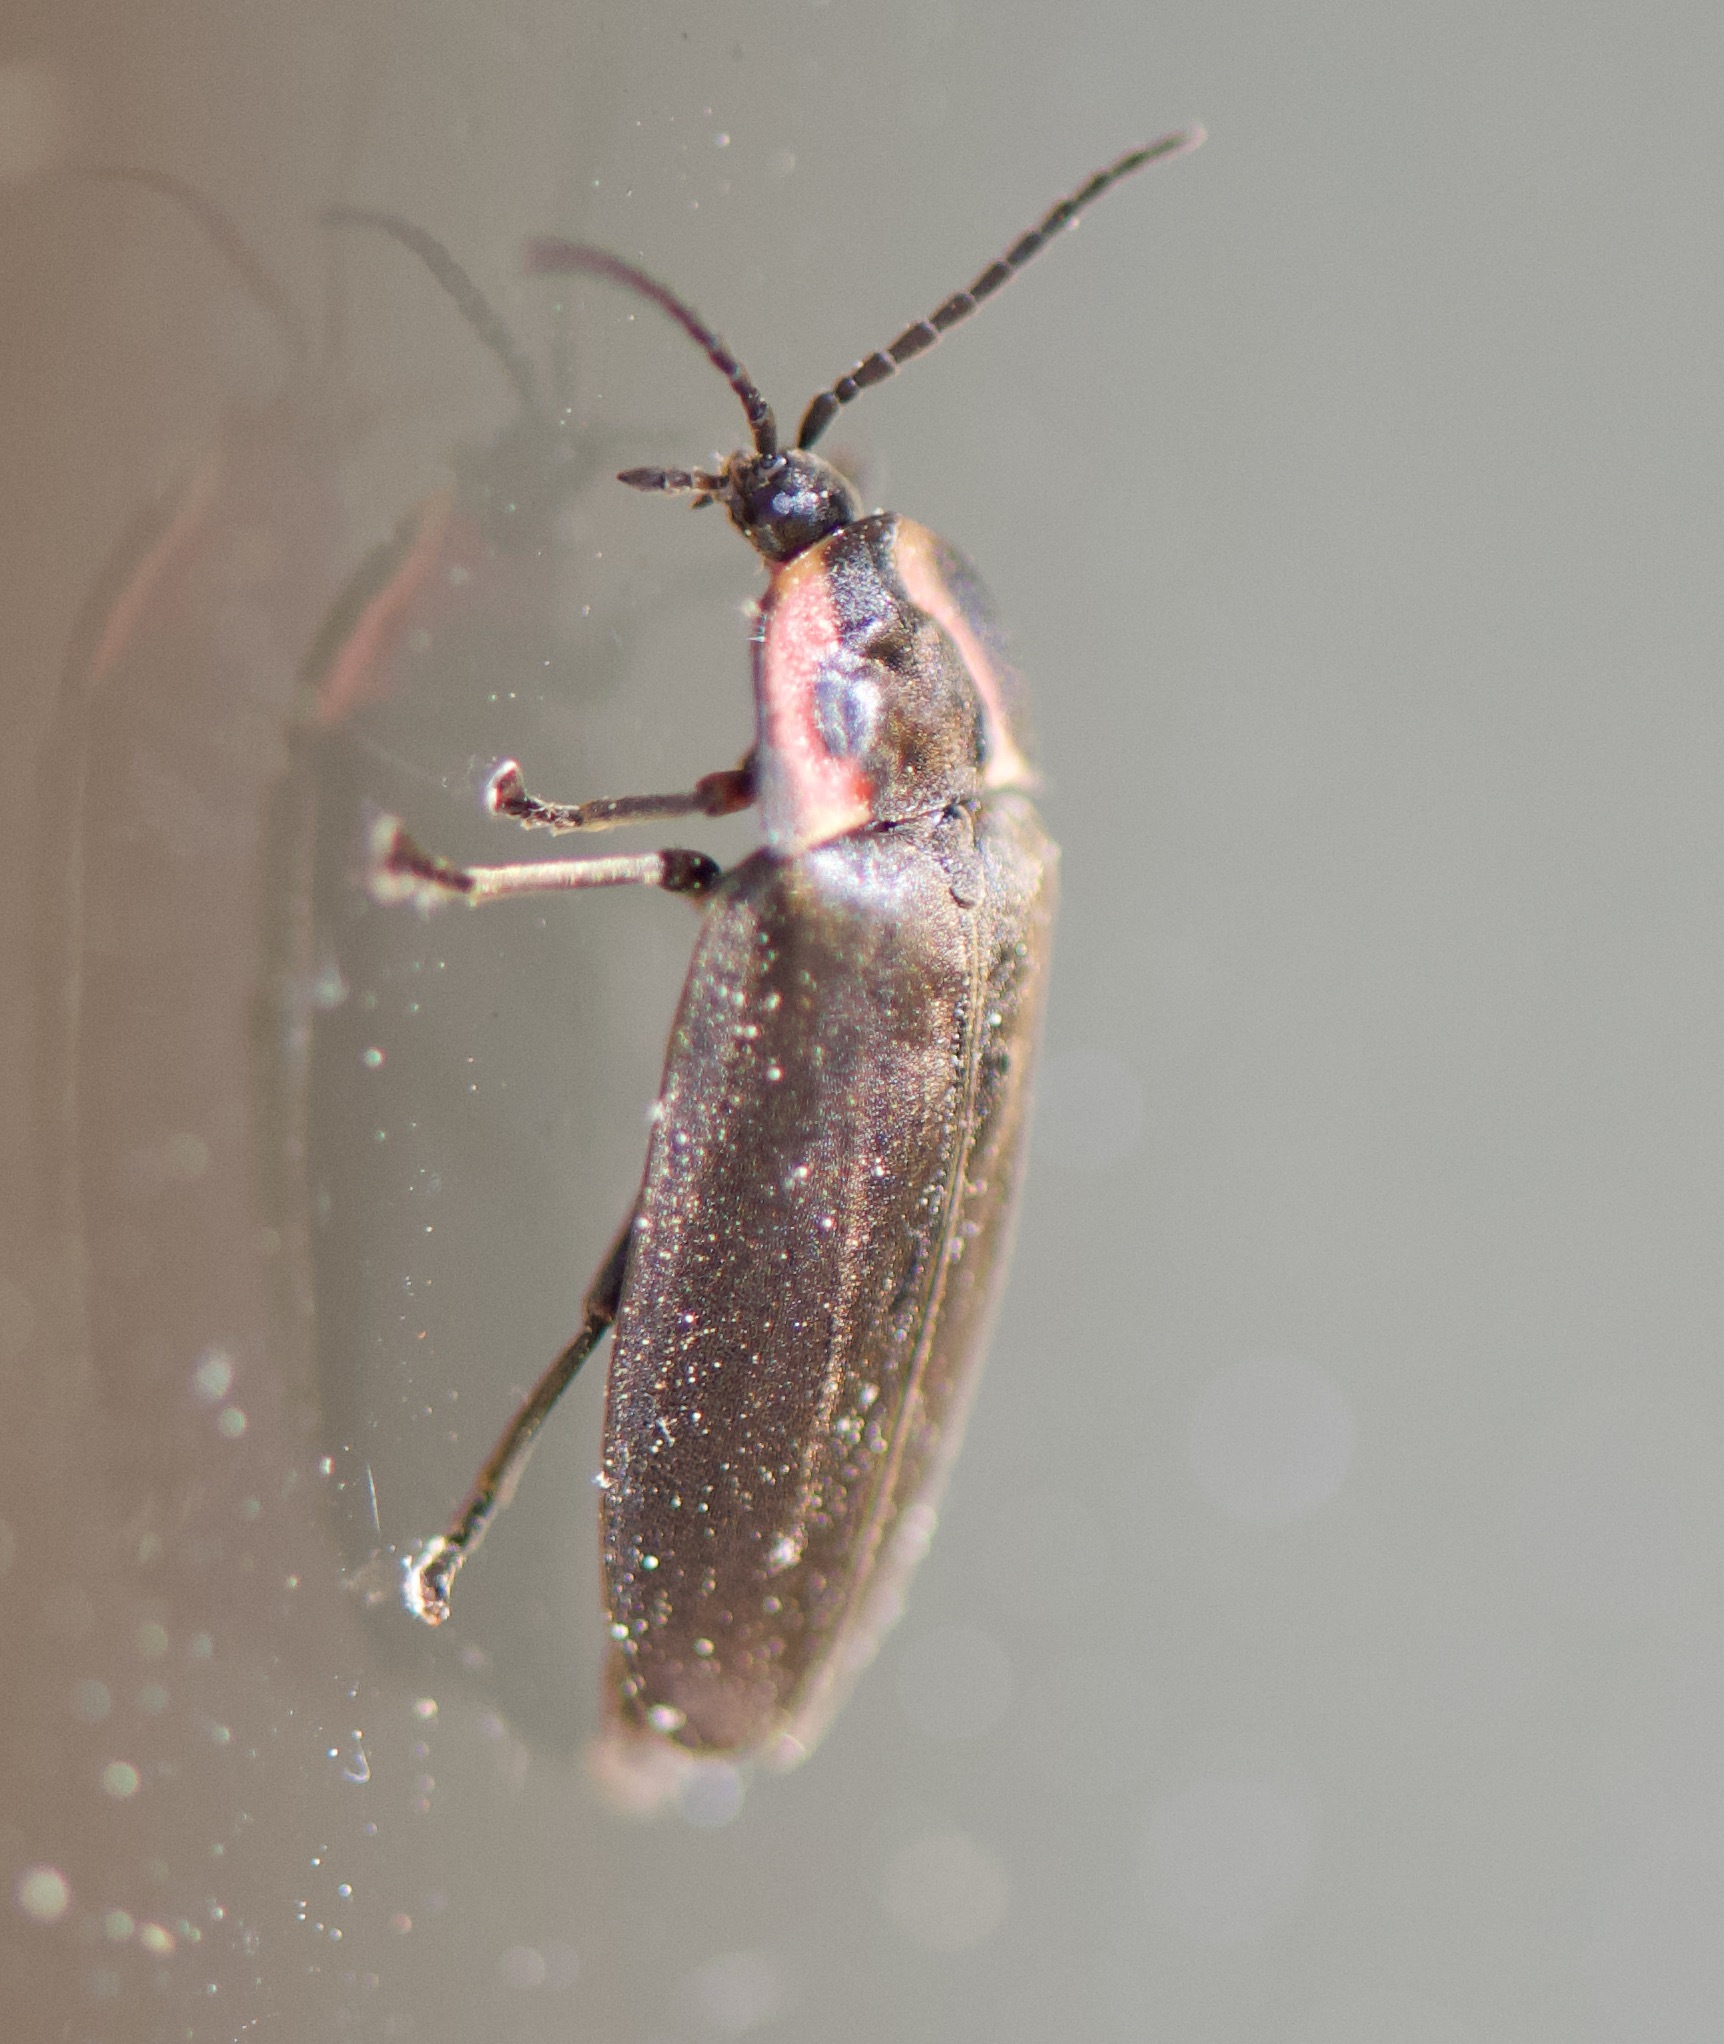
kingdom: Animalia
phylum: Arthropoda
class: Insecta
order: Coleoptera
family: Lampyridae
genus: Photinus
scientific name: Photinus corrusca
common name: Winter firefly
